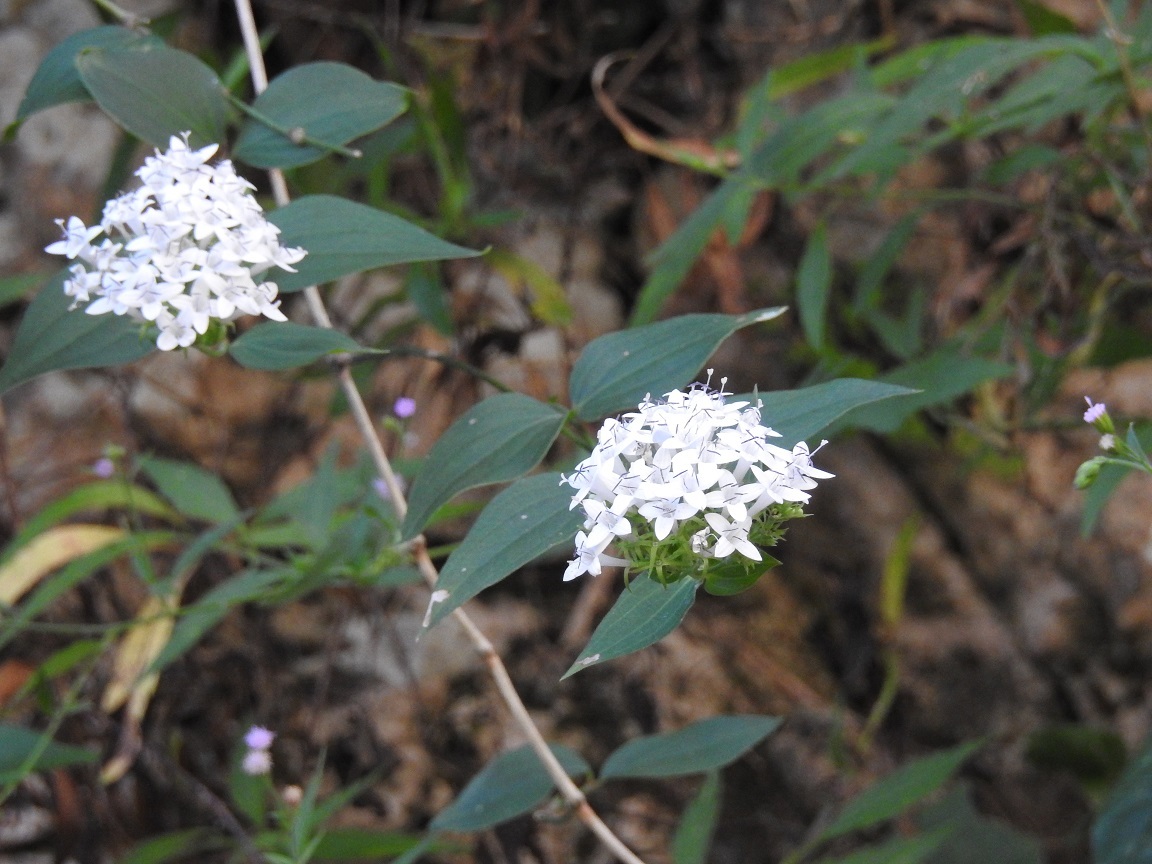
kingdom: Plantae
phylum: Tracheophyta
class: Magnoliopsida
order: Gentianales
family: Rubiaceae
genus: Bouvardia
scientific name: Bouvardia quinquenervata
